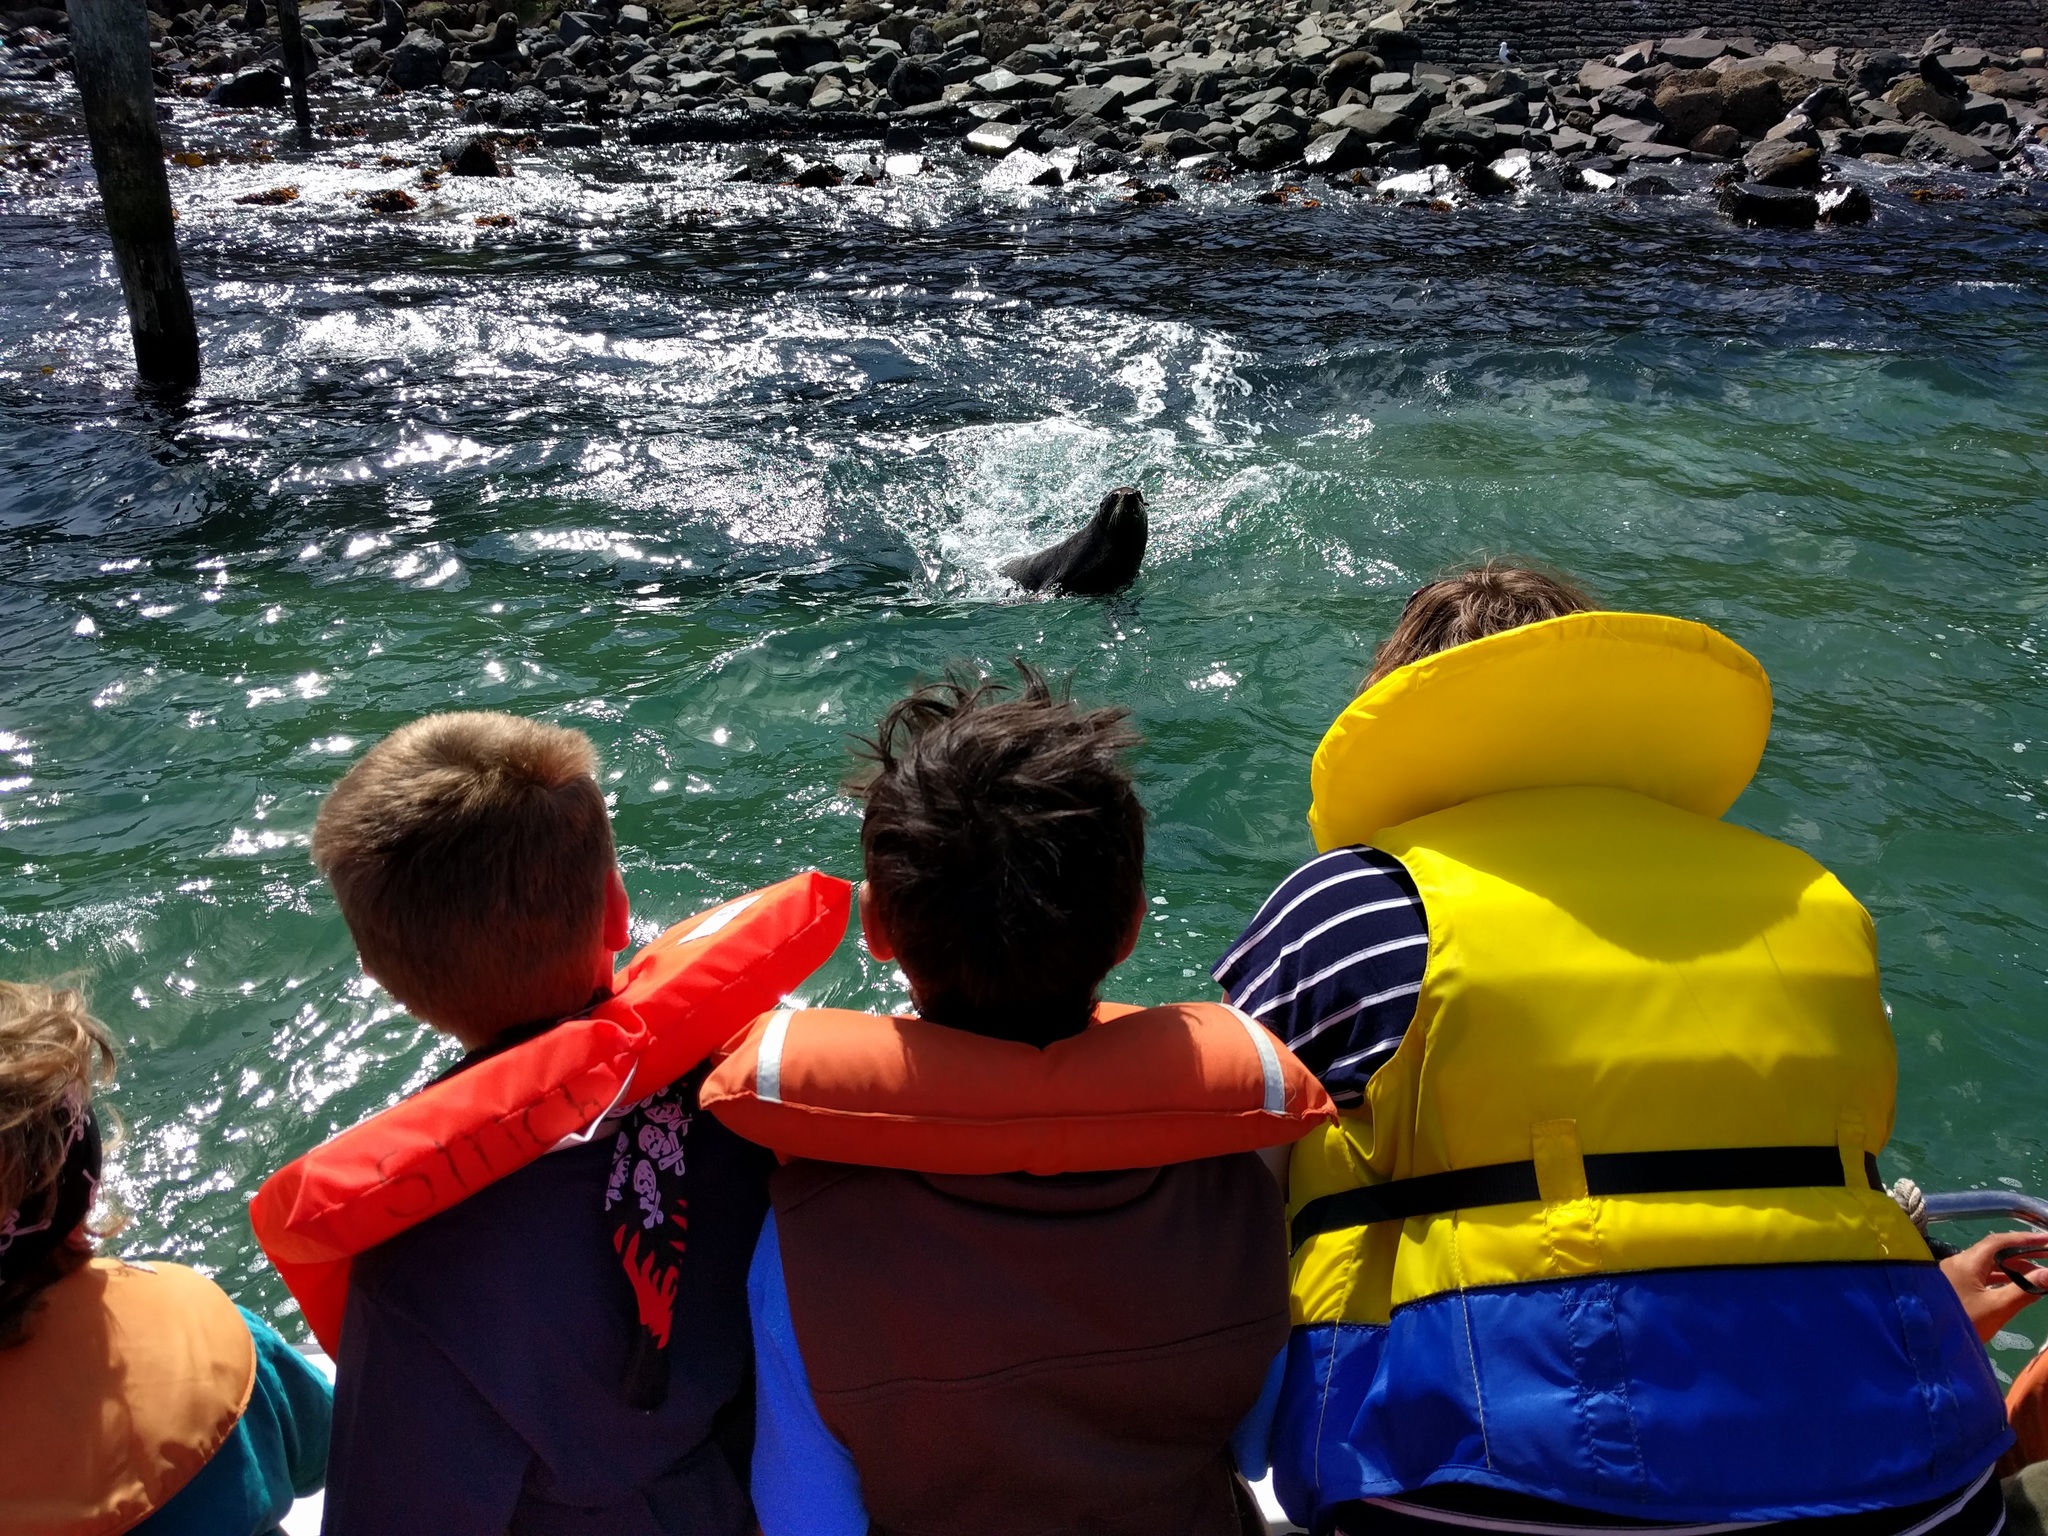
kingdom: Animalia
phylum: Chordata
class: Mammalia
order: Carnivora
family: Otariidae
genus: Arctocephalus
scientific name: Arctocephalus forsteri
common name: New zealand fur seal
